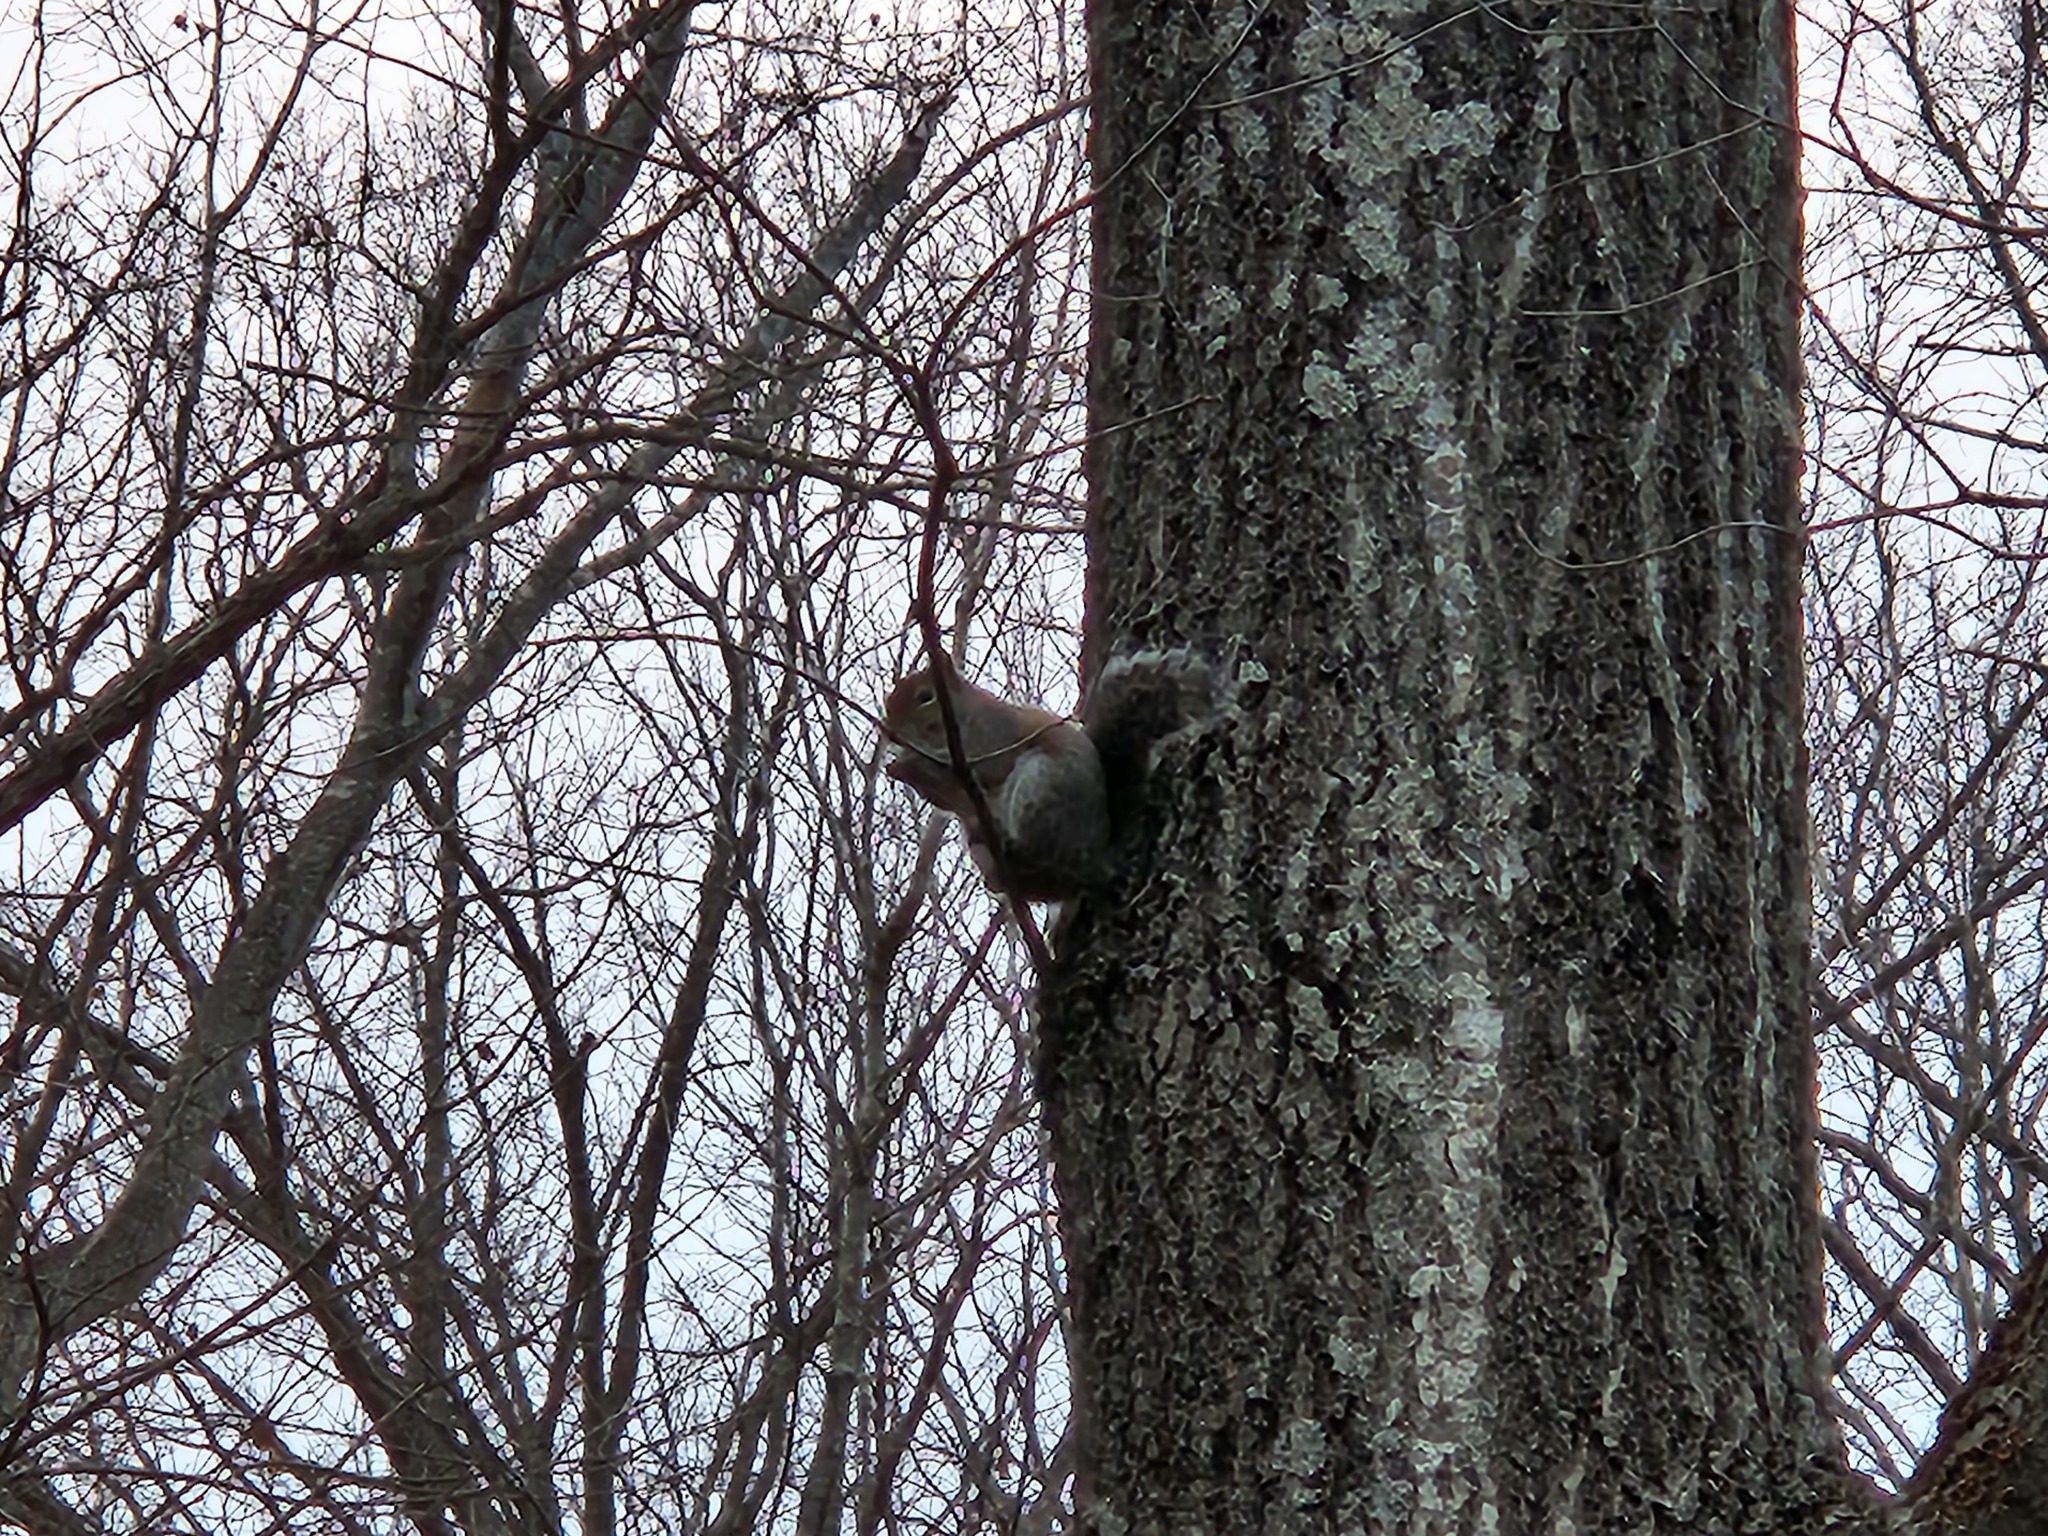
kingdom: Animalia
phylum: Chordata
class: Mammalia
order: Rodentia
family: Sciuridae
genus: Sciurus
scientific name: Sciurus carolinensis
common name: Eastern gray squirrel
